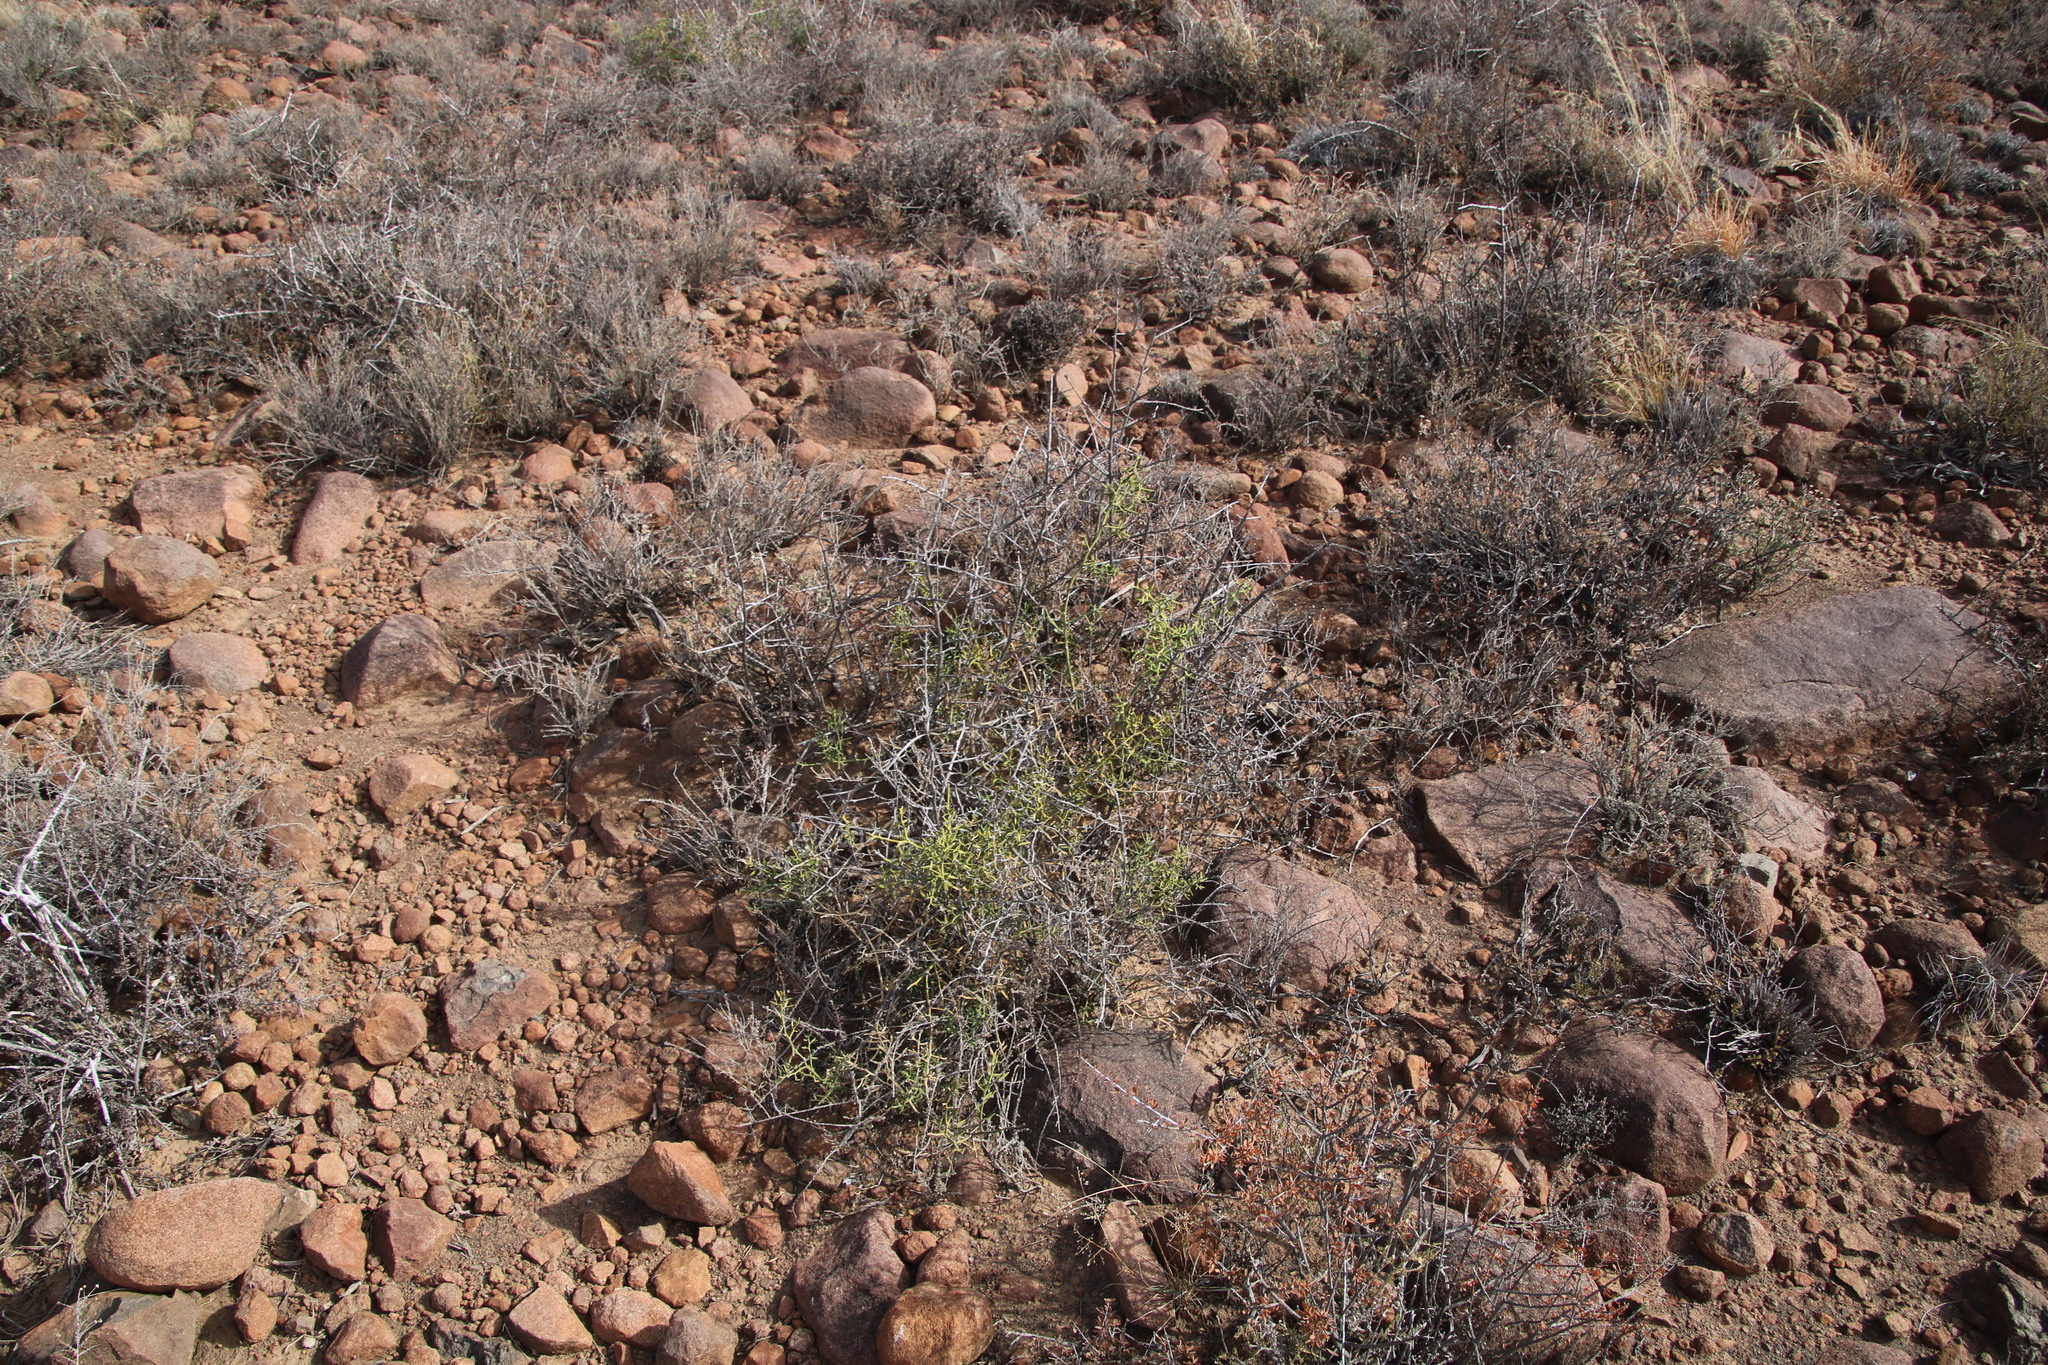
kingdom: Plantae
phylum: Tracheophyta
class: Liliopsida
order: Asparagales
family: Asparagaceae
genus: Asparagus
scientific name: Asparagus striatus
